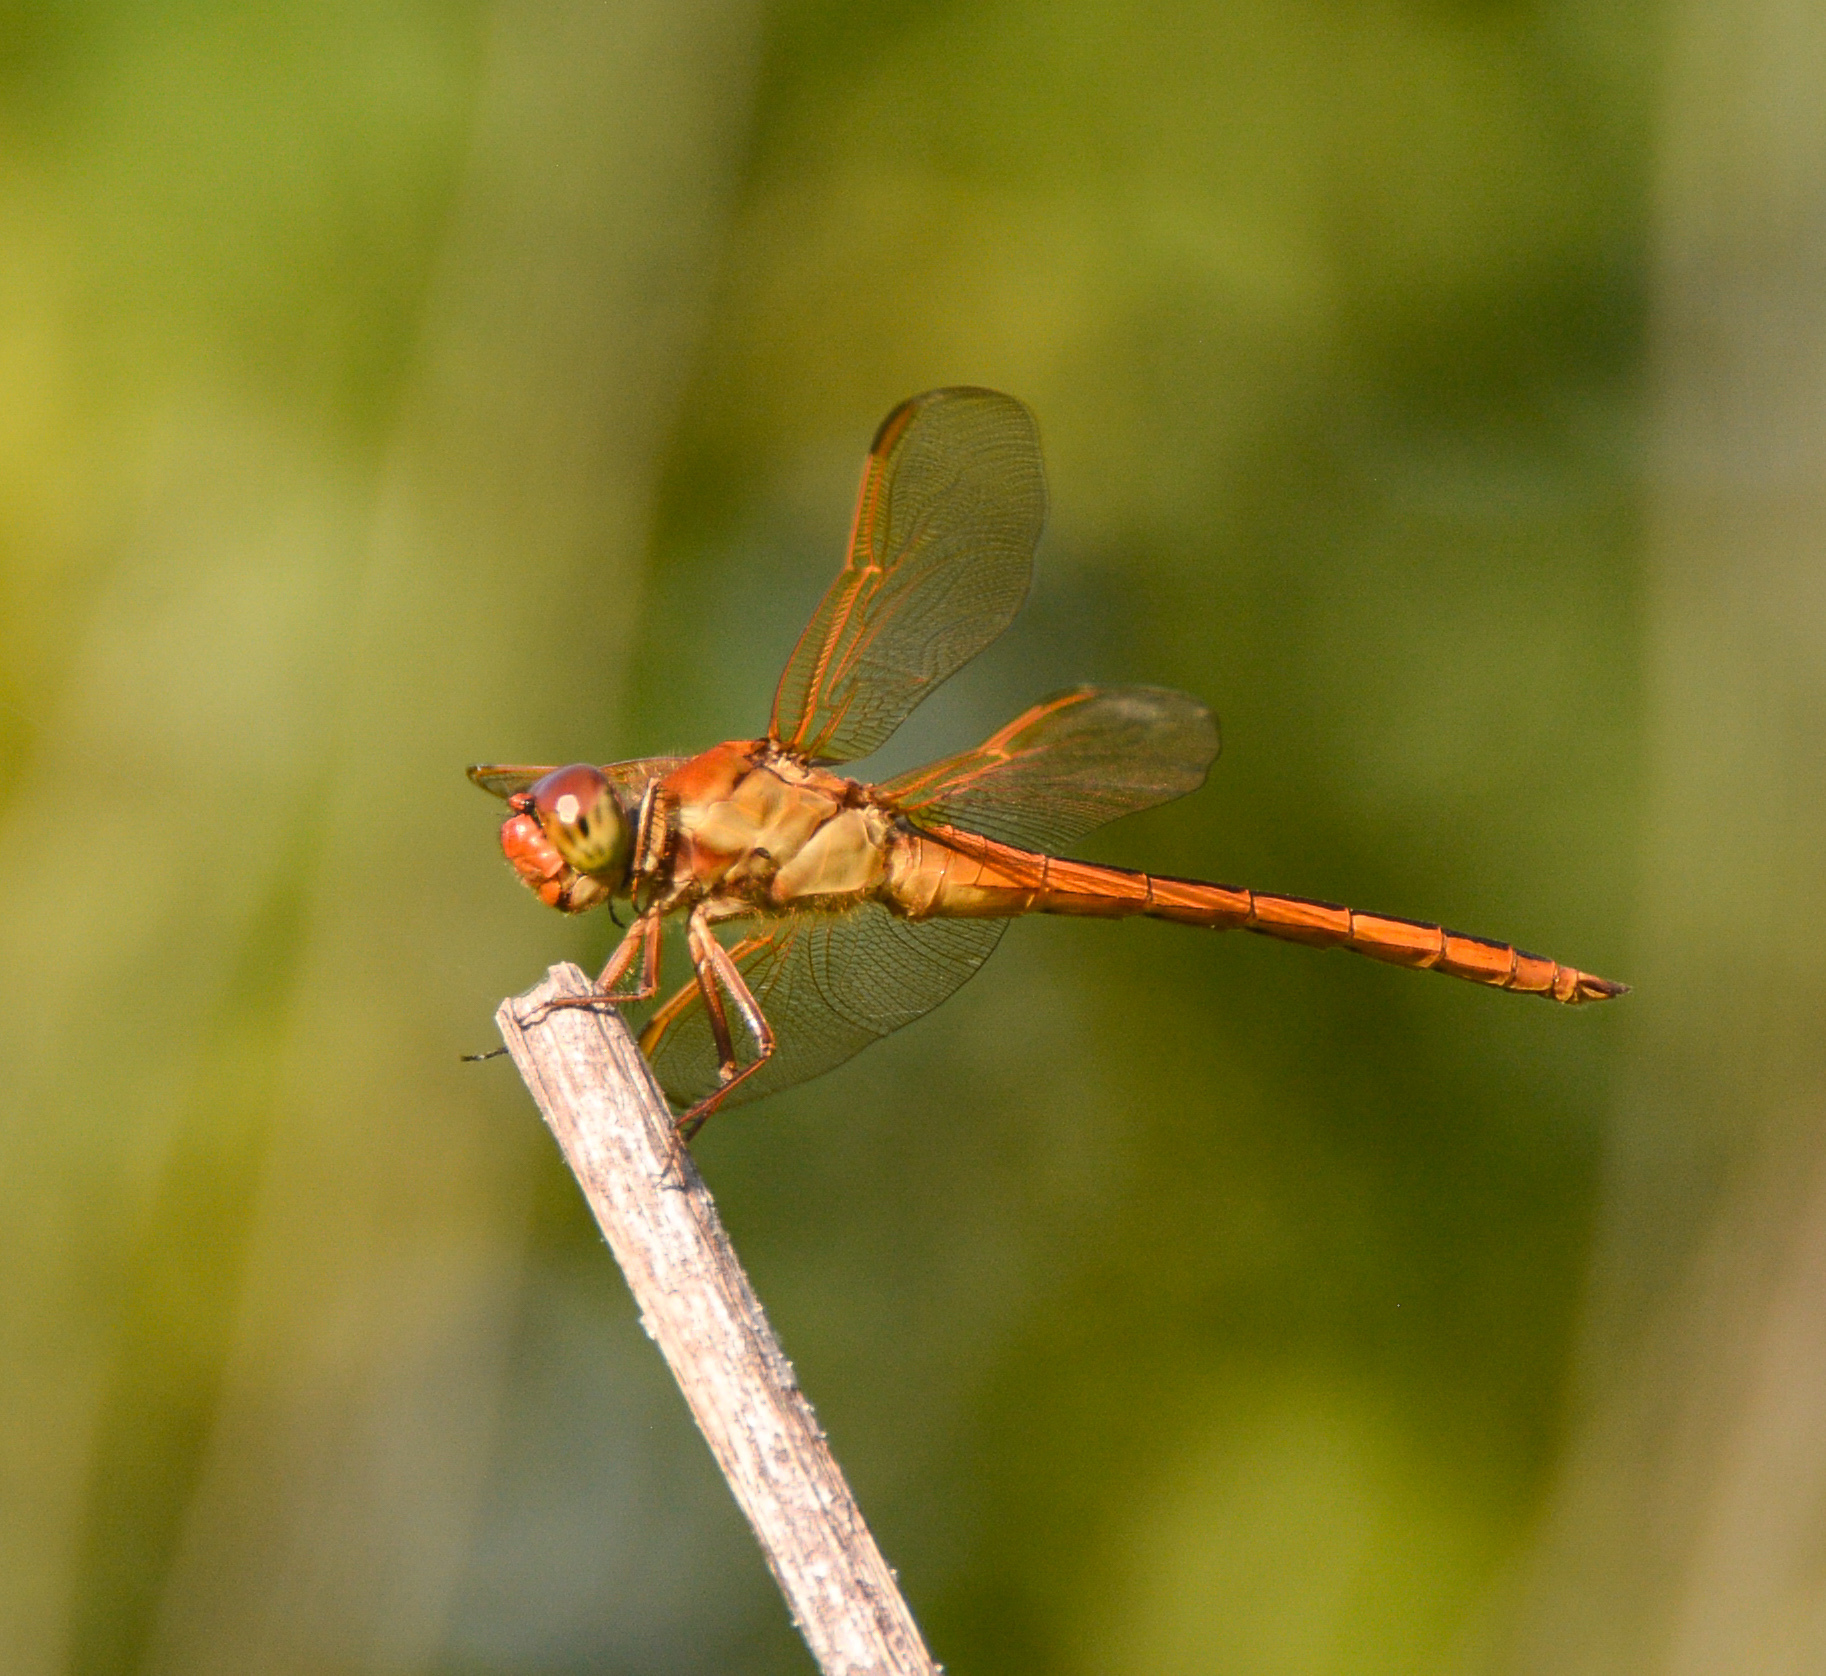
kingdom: Animalia
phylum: Arthropoda
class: Insecta
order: Odonata
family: Libellulidae
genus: Libellula
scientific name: Libellula needhami
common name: Needham's skimmer
